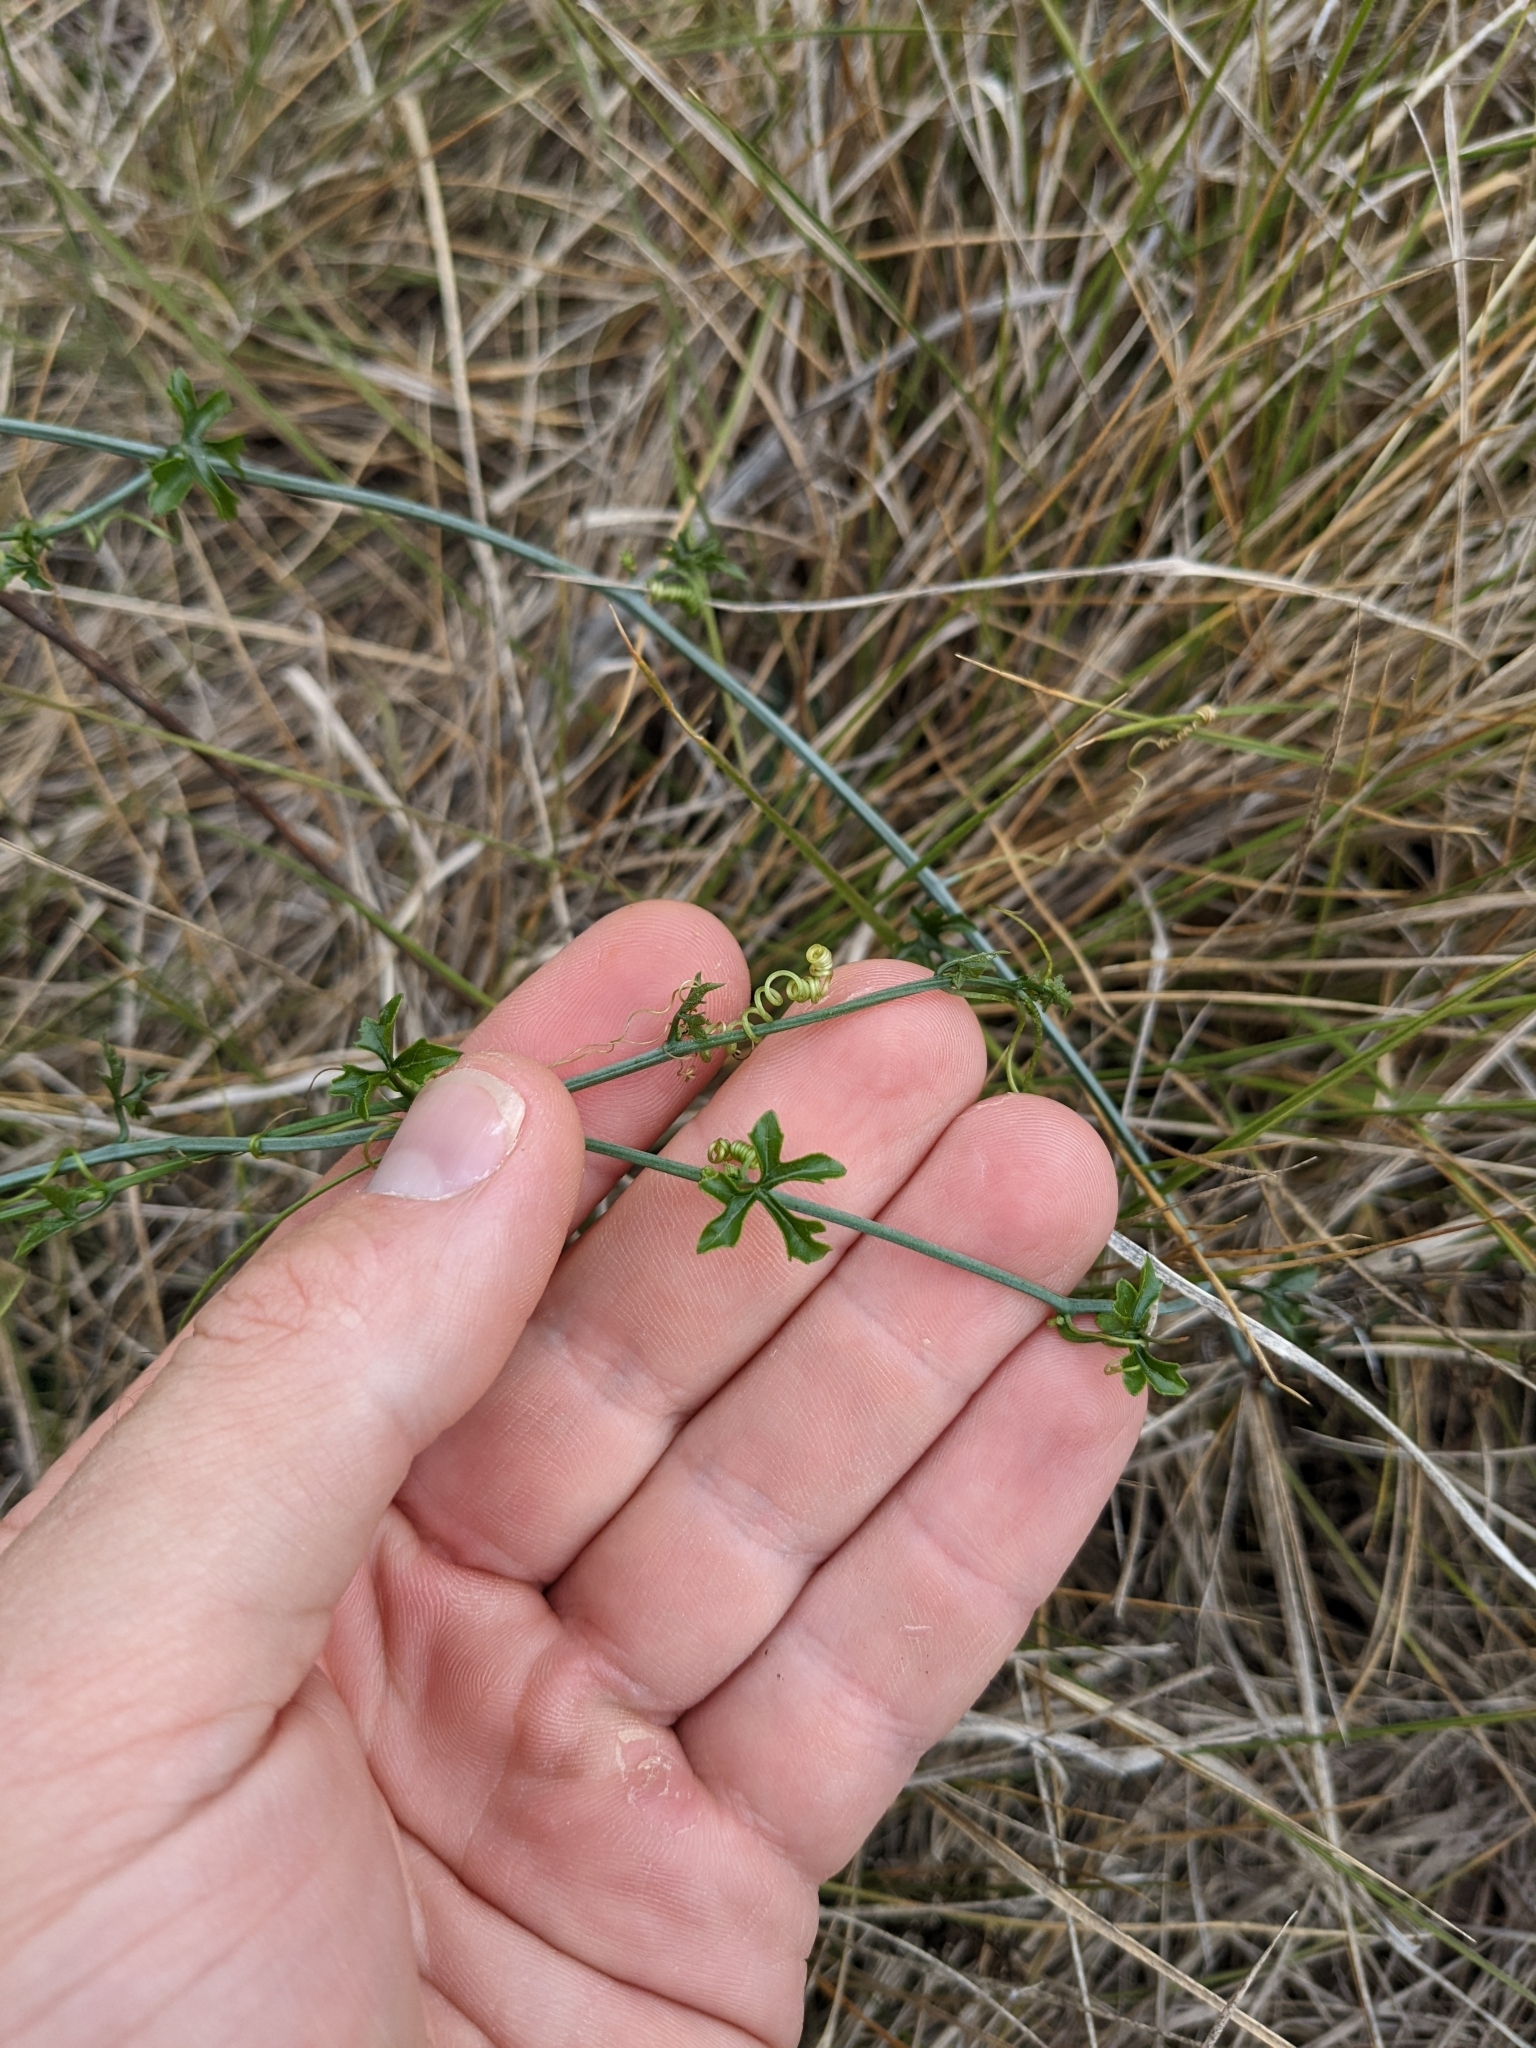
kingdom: Plantae
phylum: Tracheophyta
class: Magnoliopsida
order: Cucurbitales
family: Cucurbitaceae
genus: Ibervillea
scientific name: Ibervillea lindheimeri
